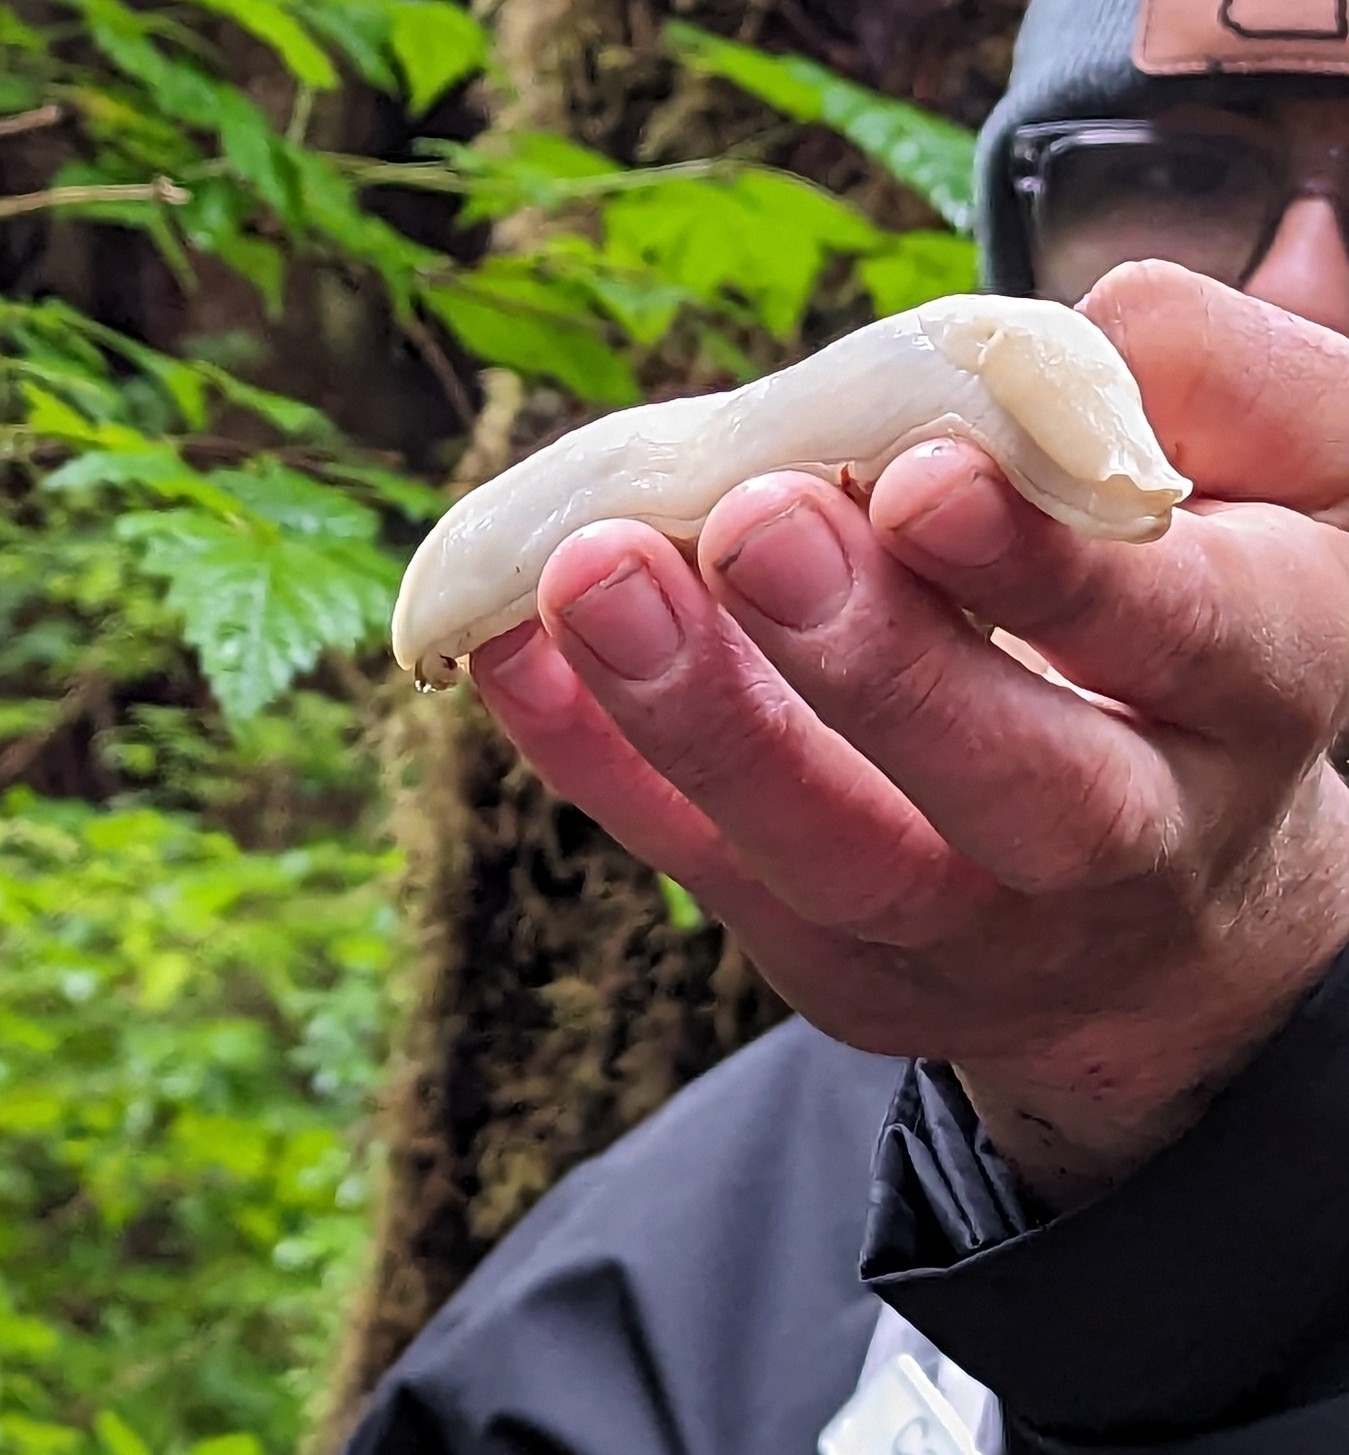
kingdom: Animalia
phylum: Mollusca
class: Gastropoda
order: Stylommatophora
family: Ariolimacidae
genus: Ariolimax
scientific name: Ariolimax columbianus
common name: Pacific banana slug
